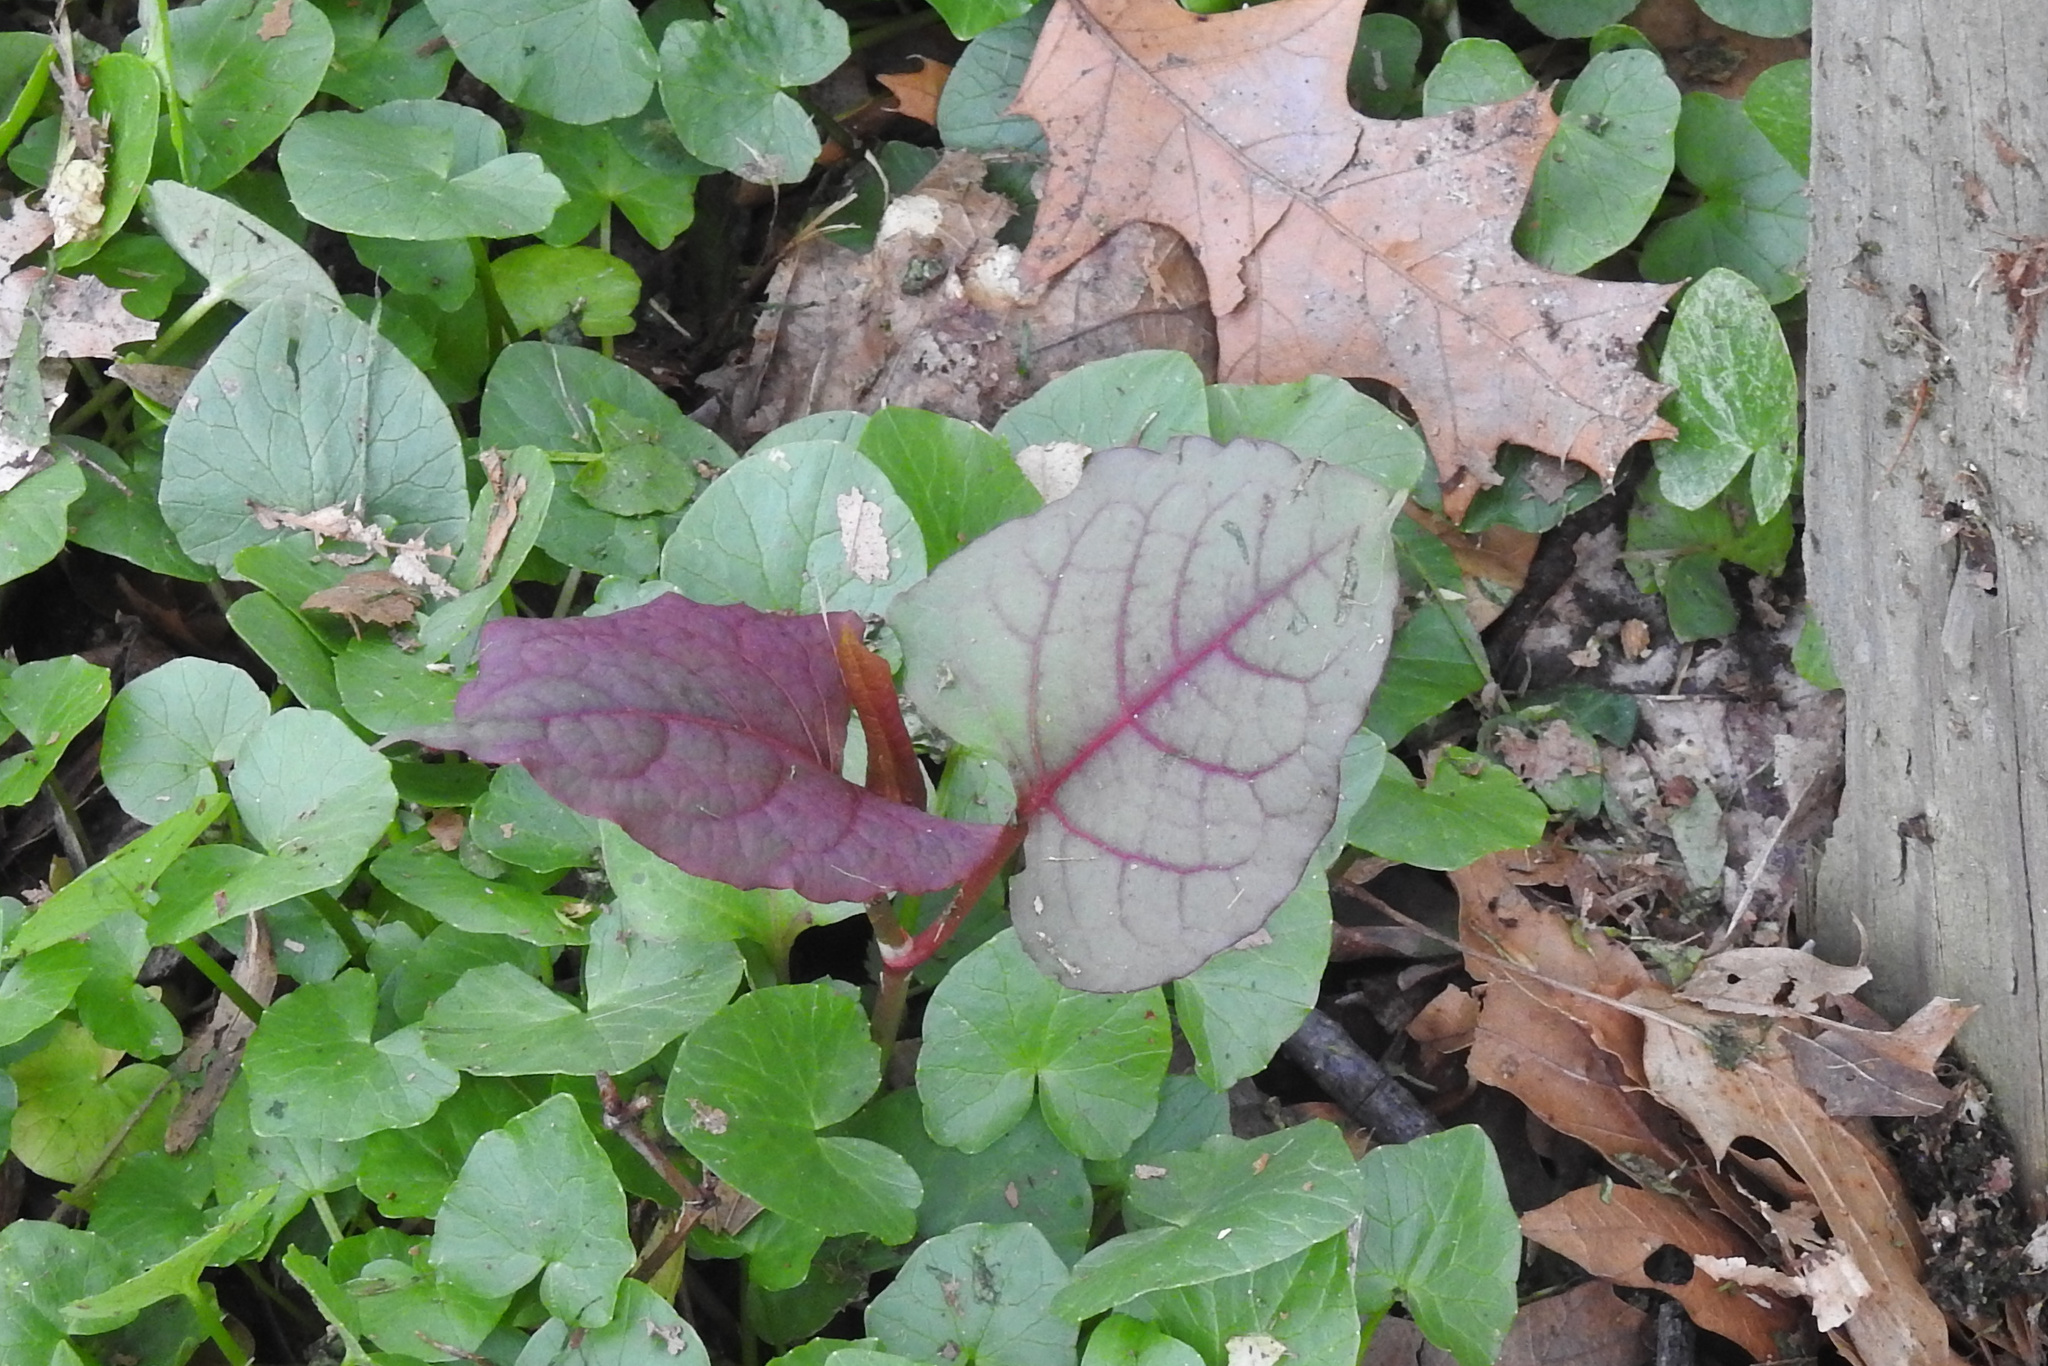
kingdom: Plantae
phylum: Tracheophyta
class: Magnoliopsida
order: Caryophyllales
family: Polygonaceae
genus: Reynoutria
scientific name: Reynoutria japonica
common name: Japanese knotweed
